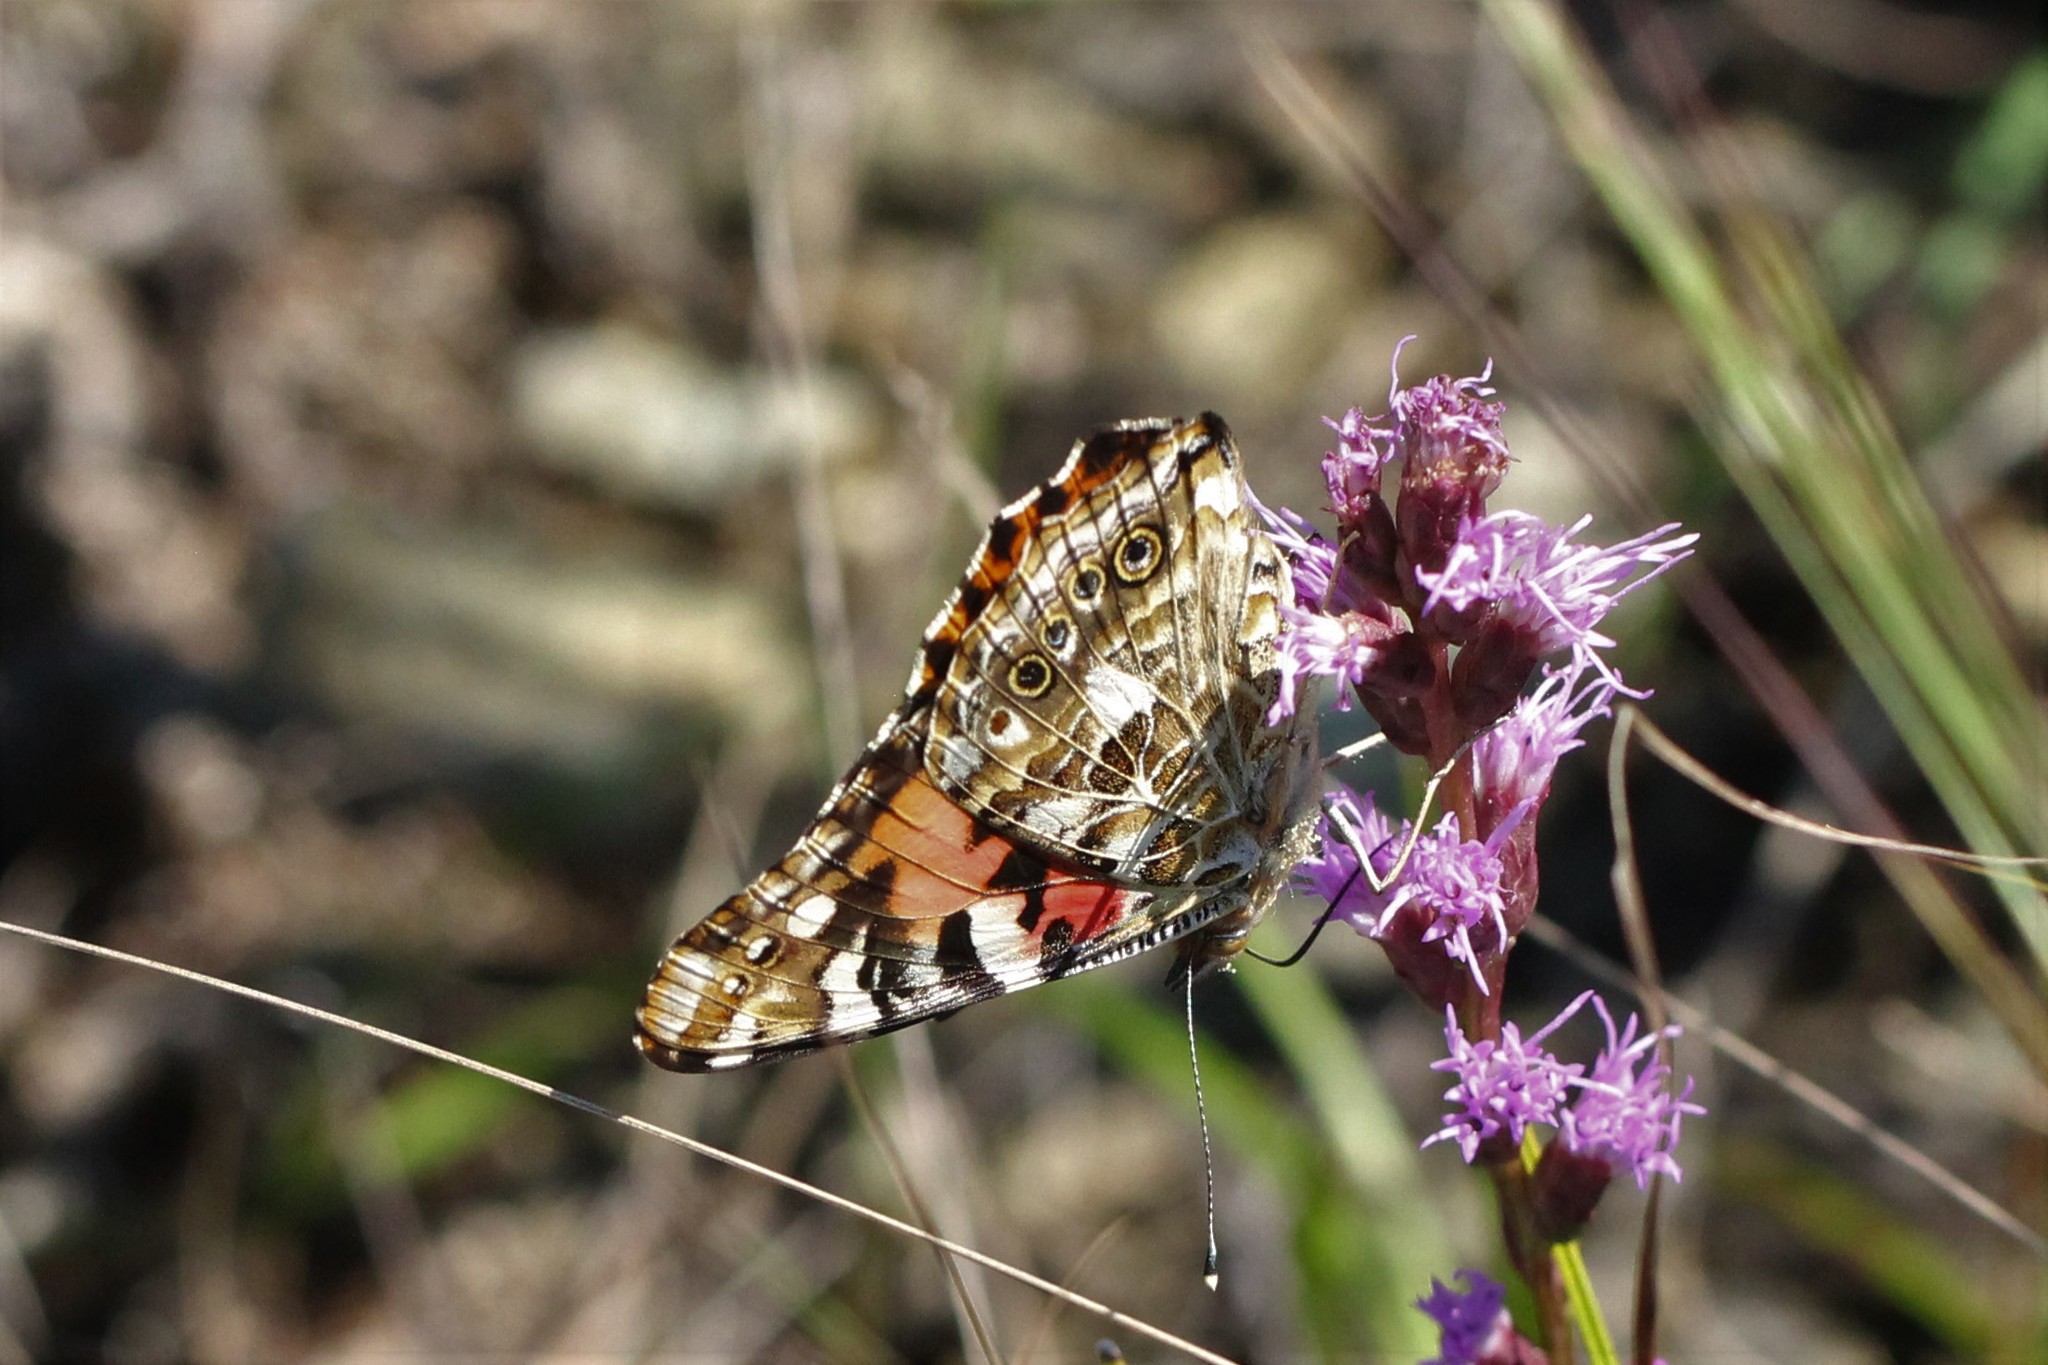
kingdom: Animalia
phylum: Arthropoda
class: Insecta
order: Lepidoptera
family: Nymphalidae
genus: Vanessa
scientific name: Vanessa cardui
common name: Painted lady
